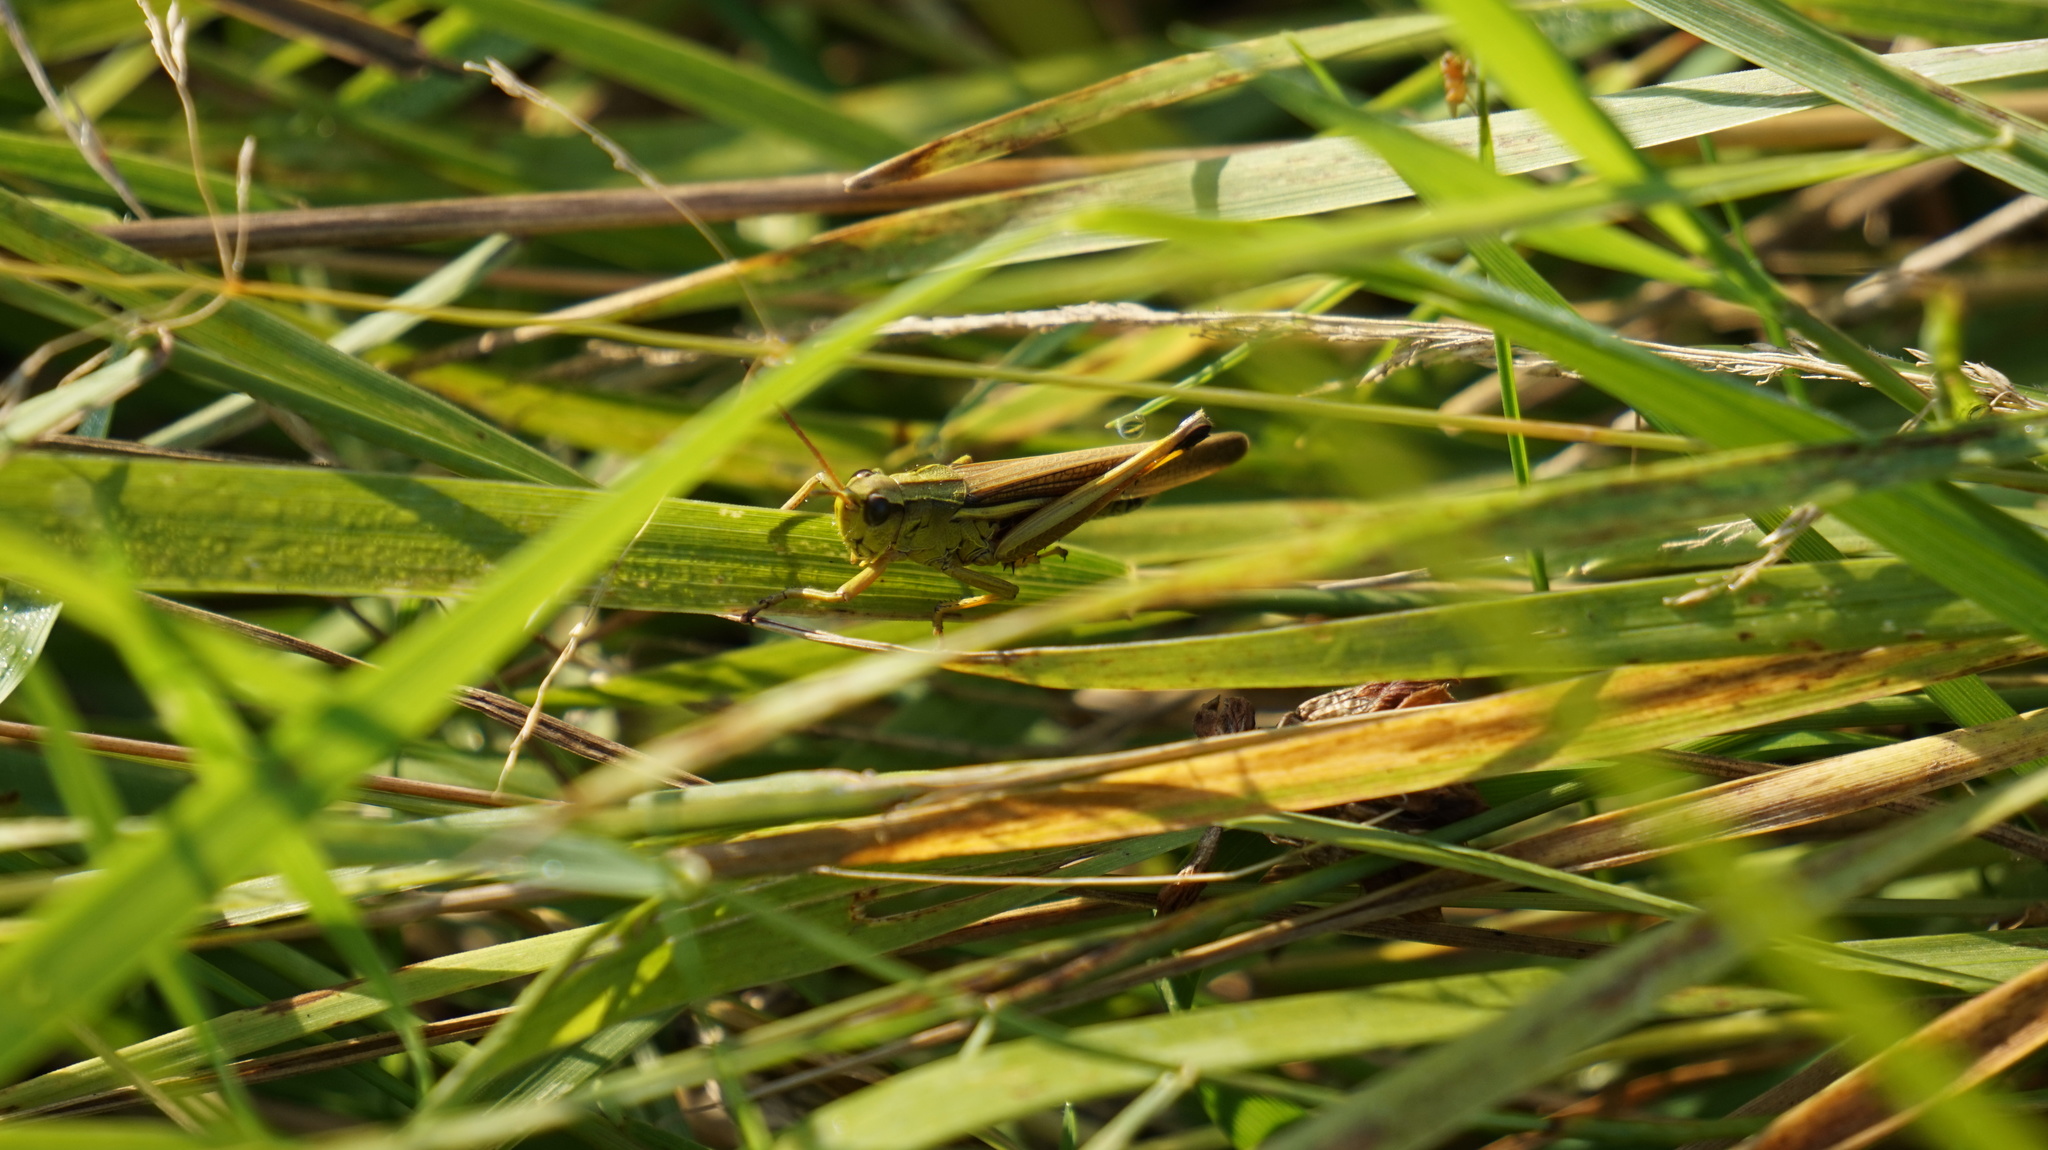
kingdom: Animalia
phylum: Arthropoda
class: Insecta
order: Orthoptera
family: Acrididae
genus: Stethophyma
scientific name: Stethophyma grossum
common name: Large marsh grasshopper
